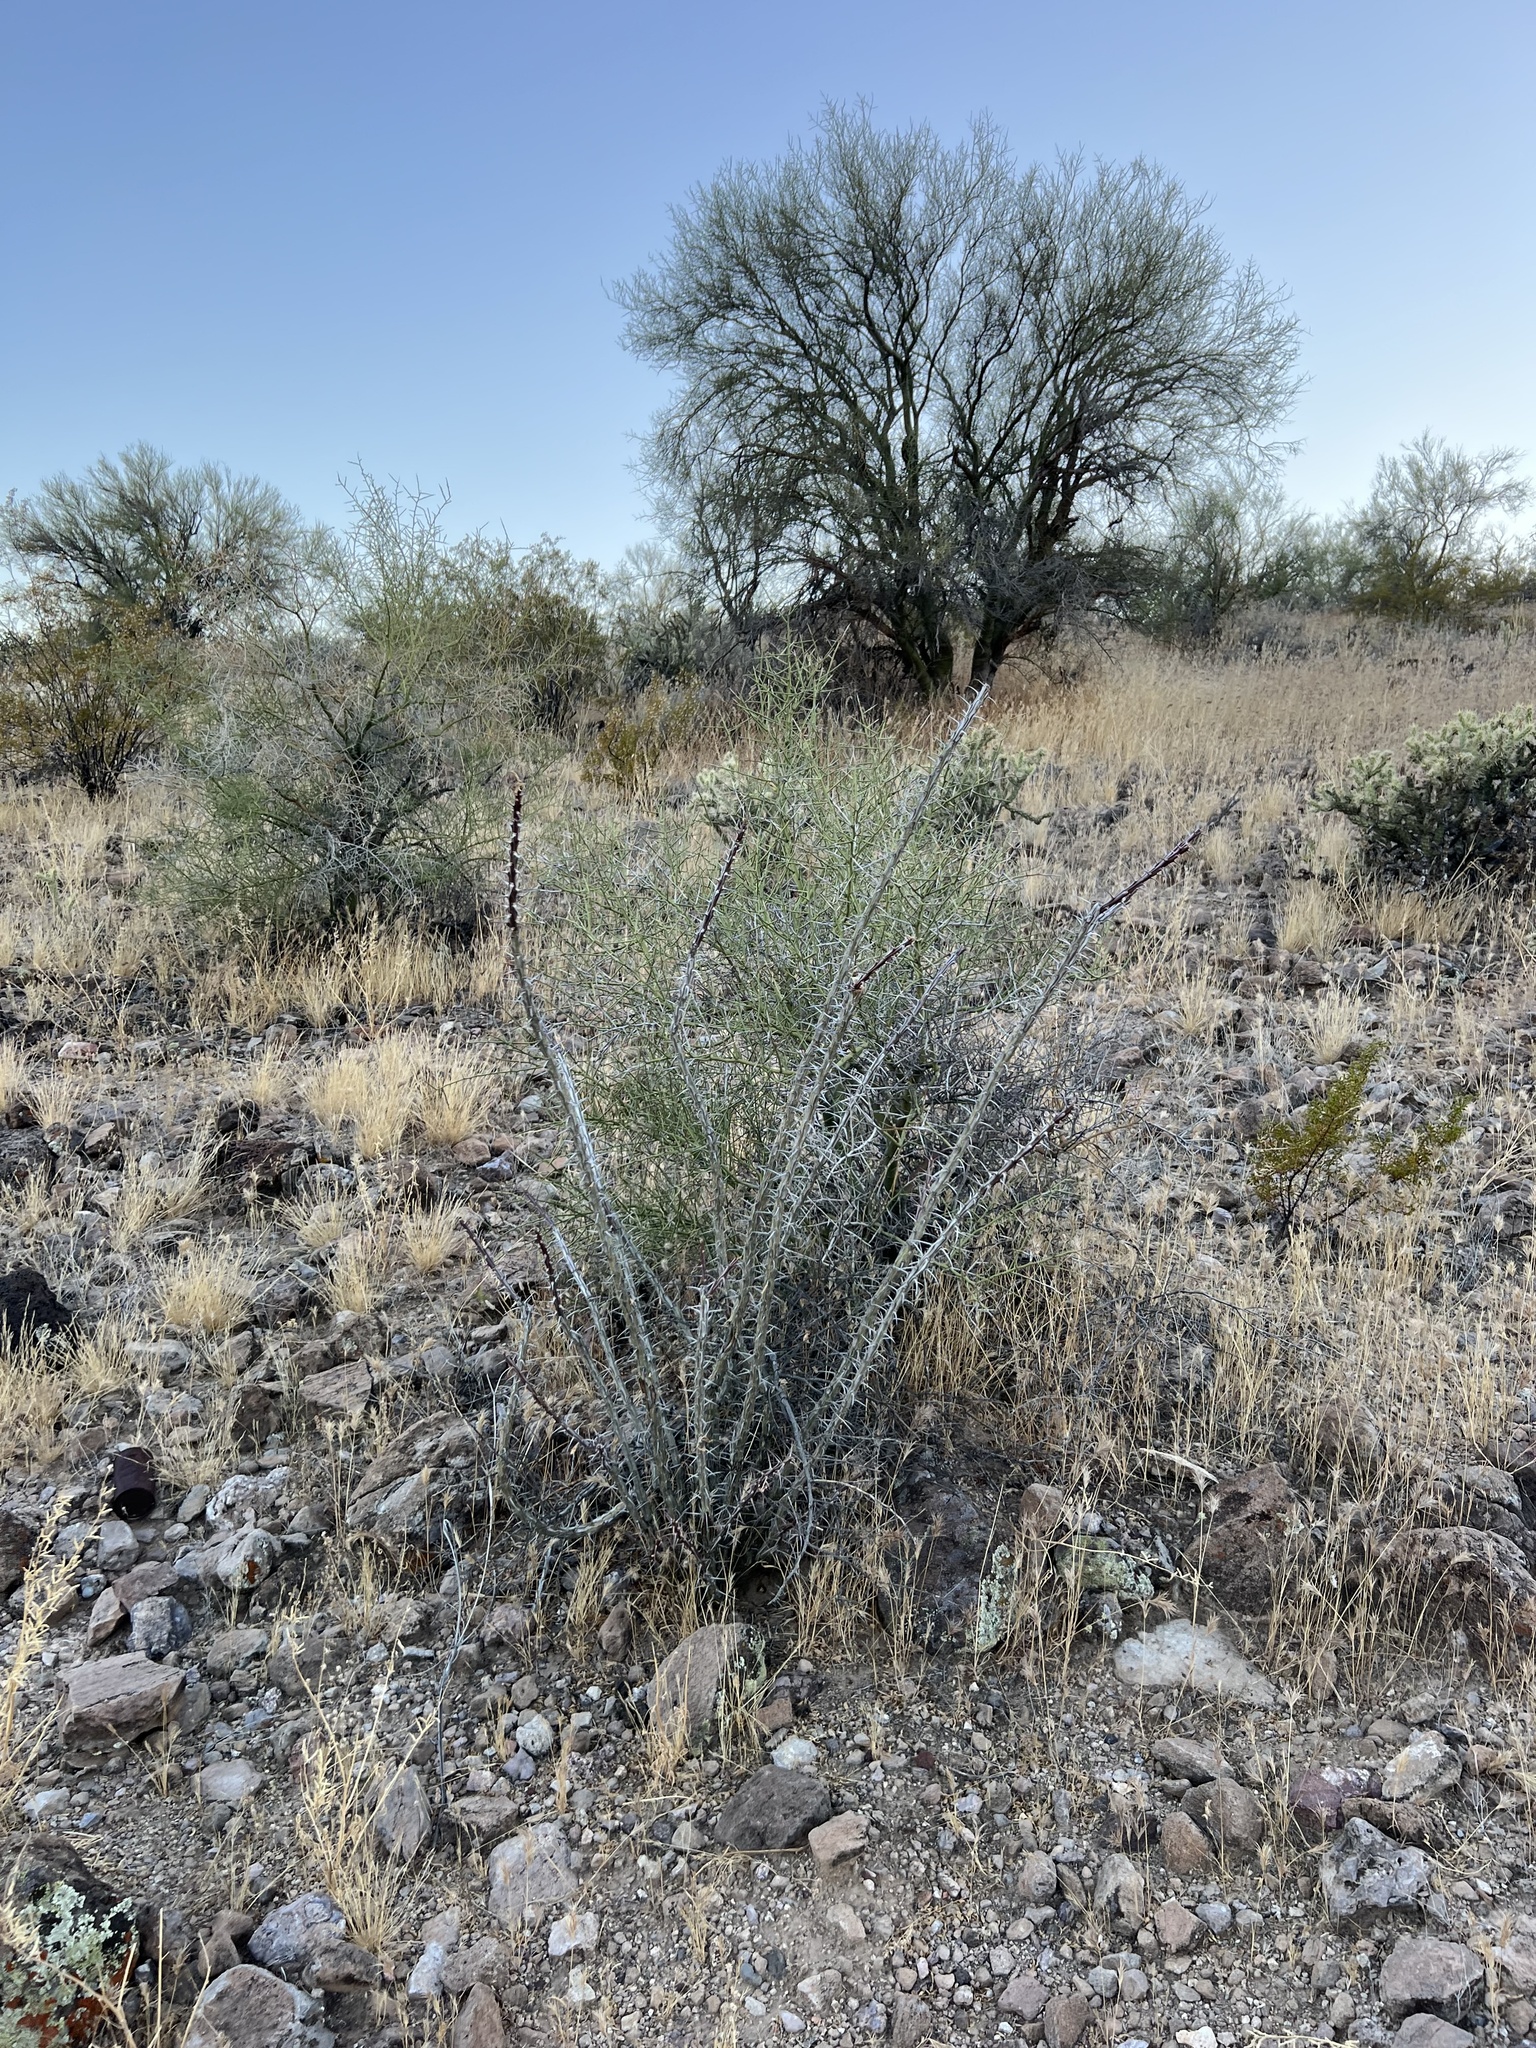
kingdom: Plantae
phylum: Tracheophyta
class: Magnoliopsida
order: Ericales
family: Fouquieriaceae
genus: Fouquieria
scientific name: Fouquieria splendens
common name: Vine-cactus
